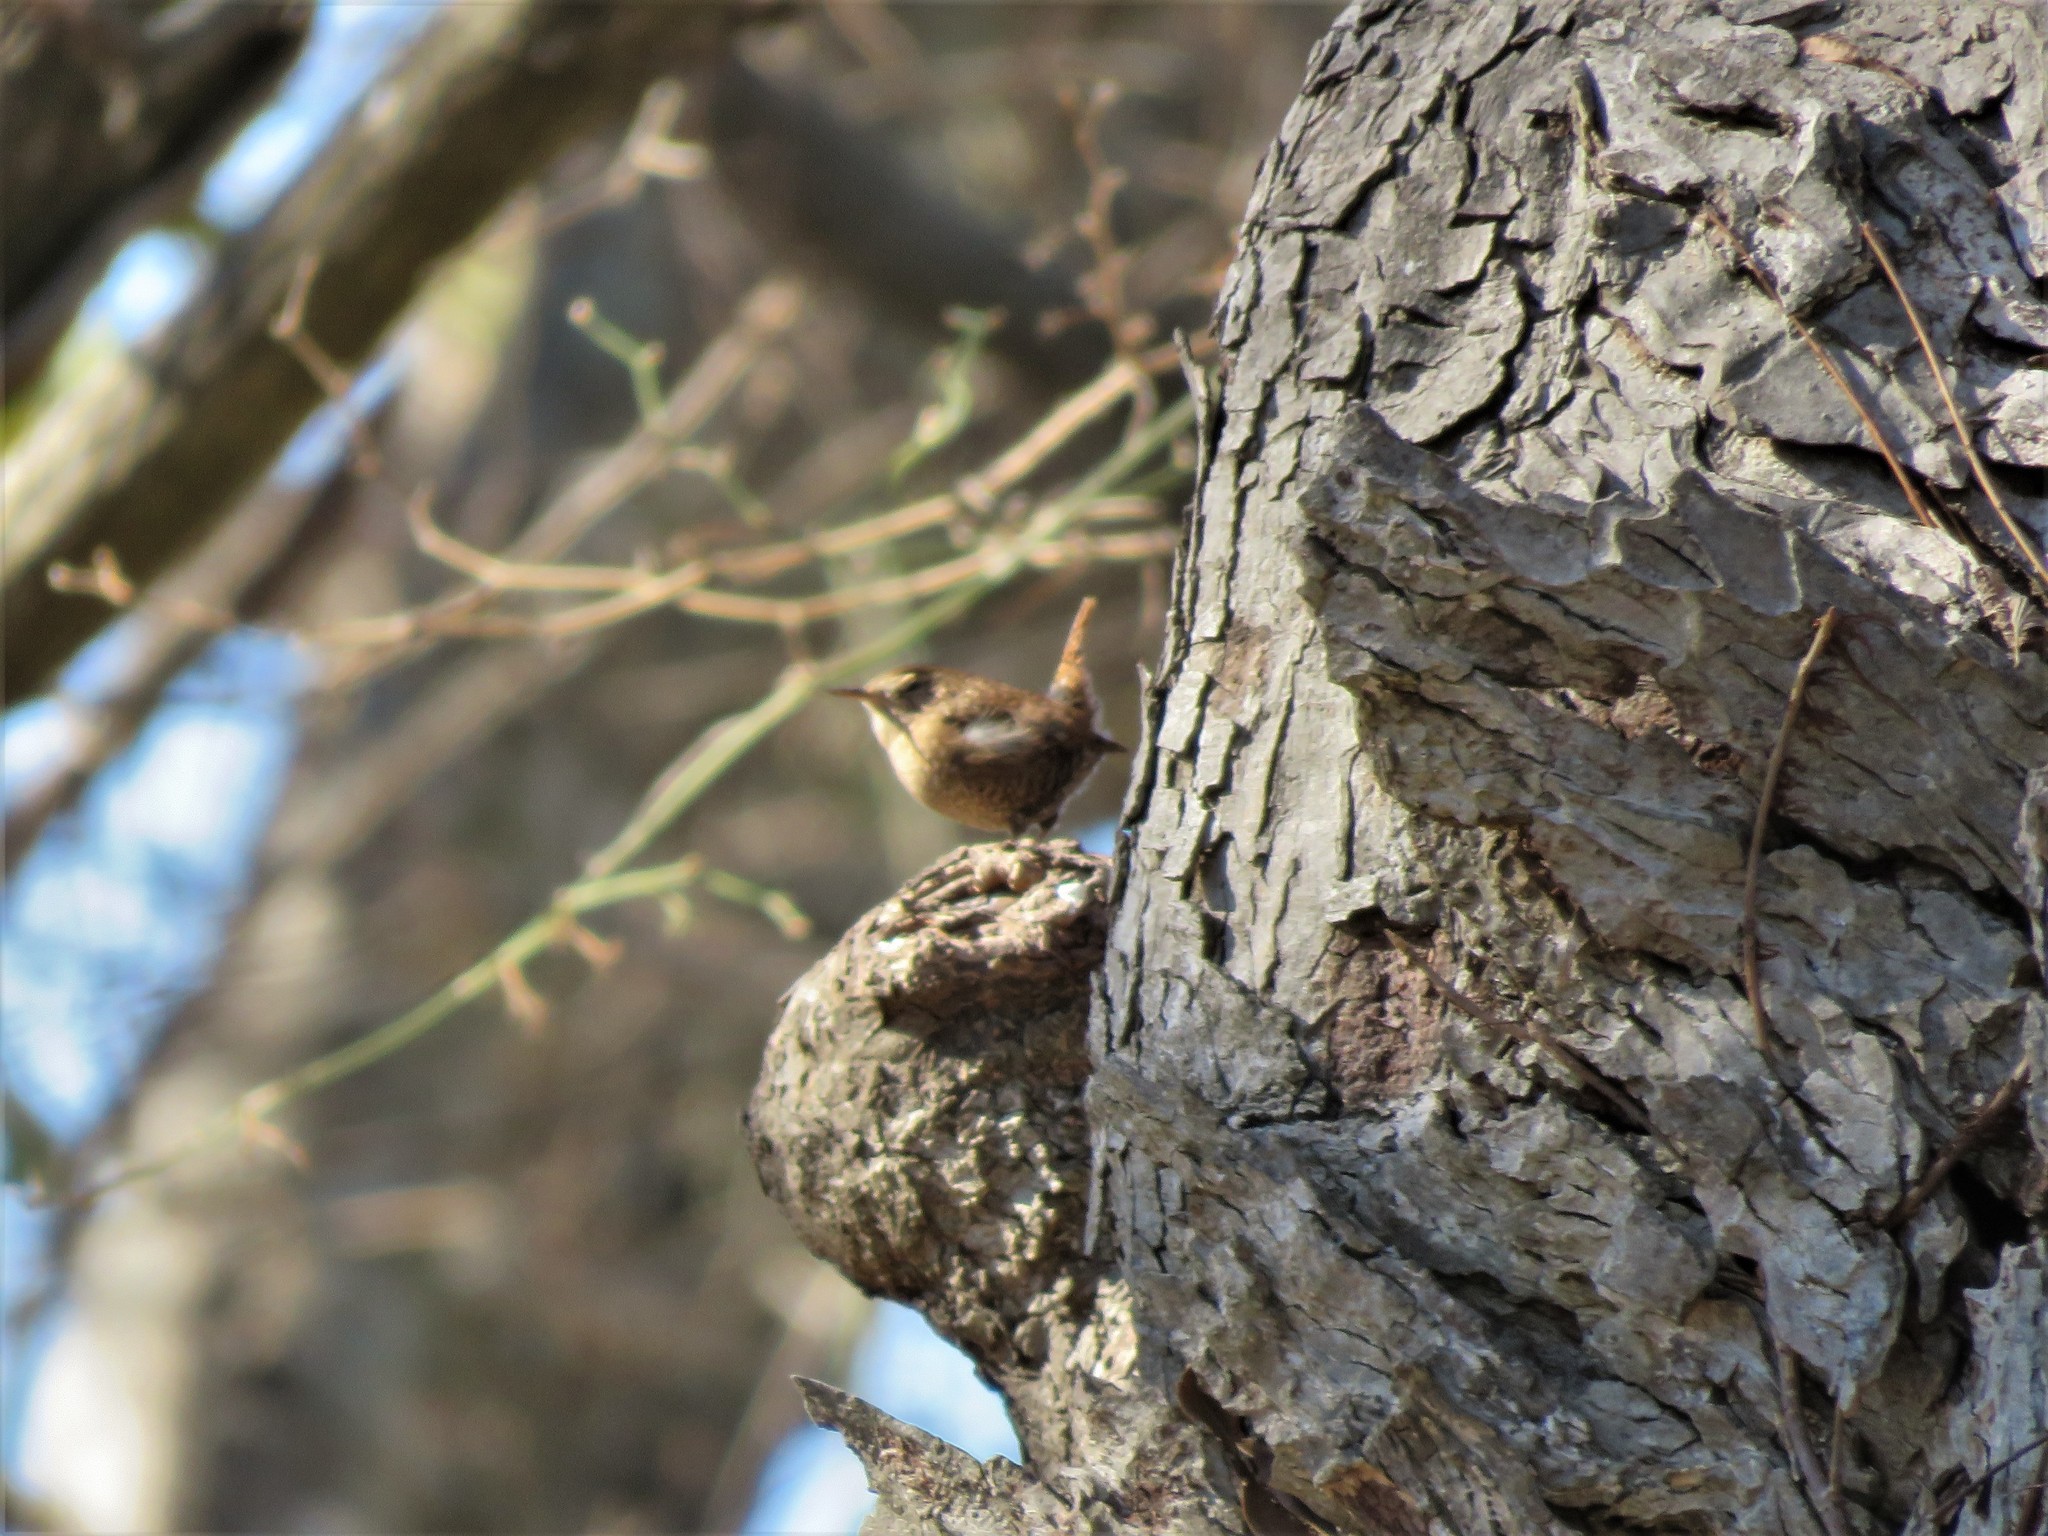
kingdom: Animalia
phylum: Chordata
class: Aves
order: Passeriformes
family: Troglodytidae
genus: Troglodytes
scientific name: Troglodytes hiemalis
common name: Winter wren
